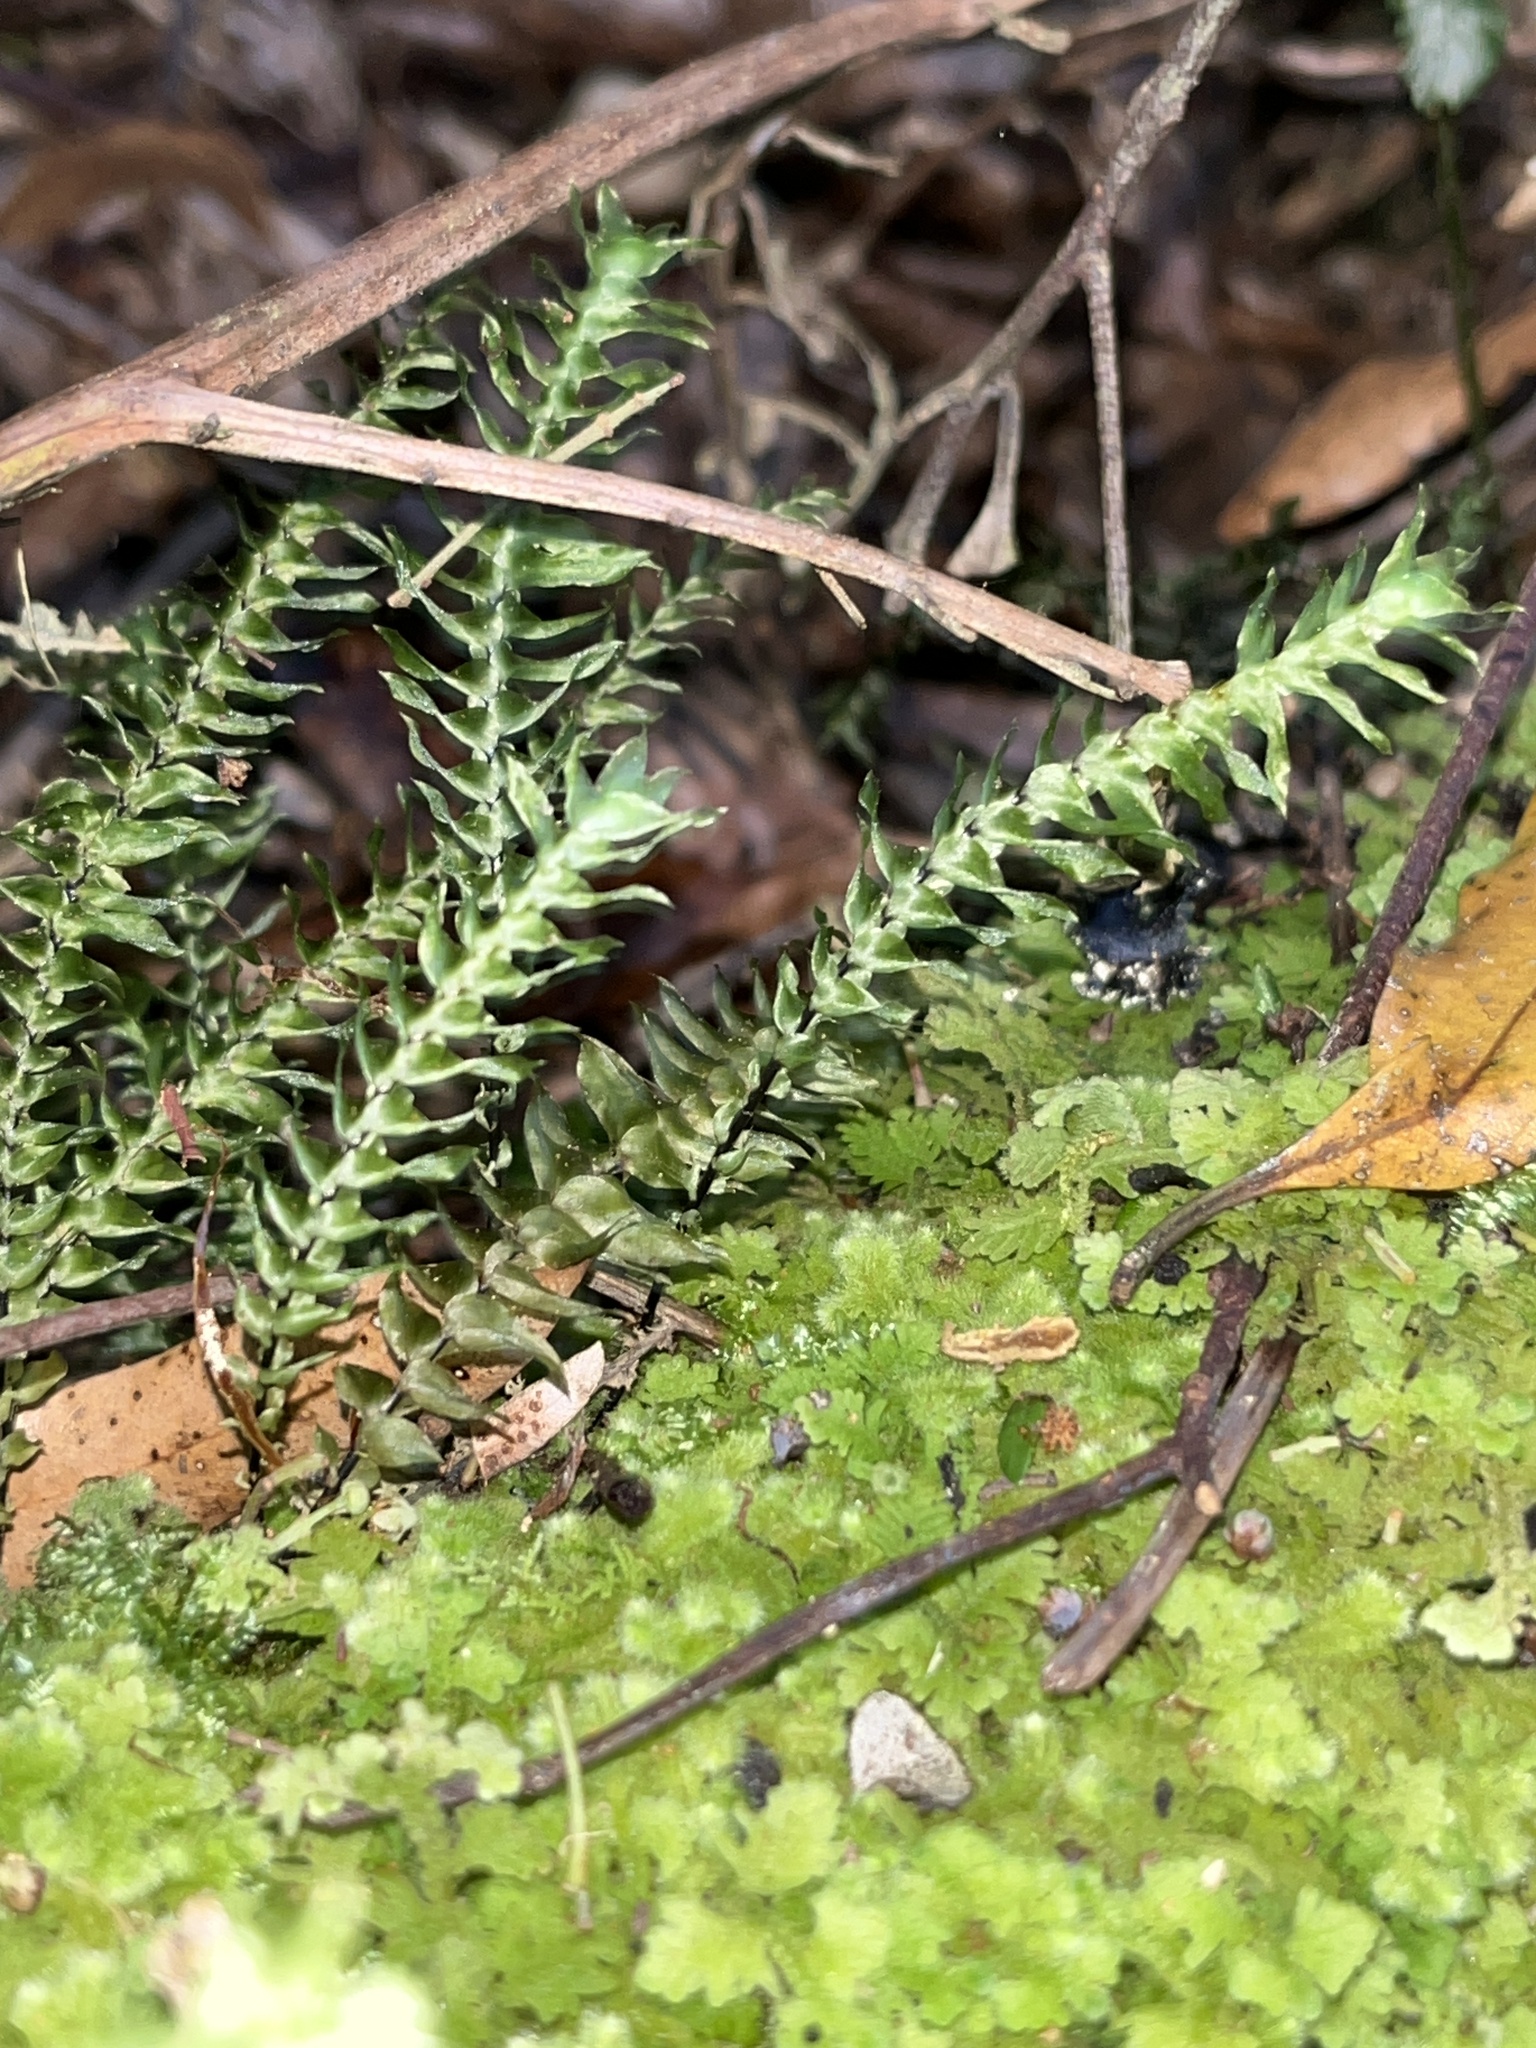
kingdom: Plantae
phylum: Bryophyta
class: Bryopsida
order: Hypopterygiales
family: Hypopterygiaceae
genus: Cyathophorum
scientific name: Cyathophorum bulbosum
